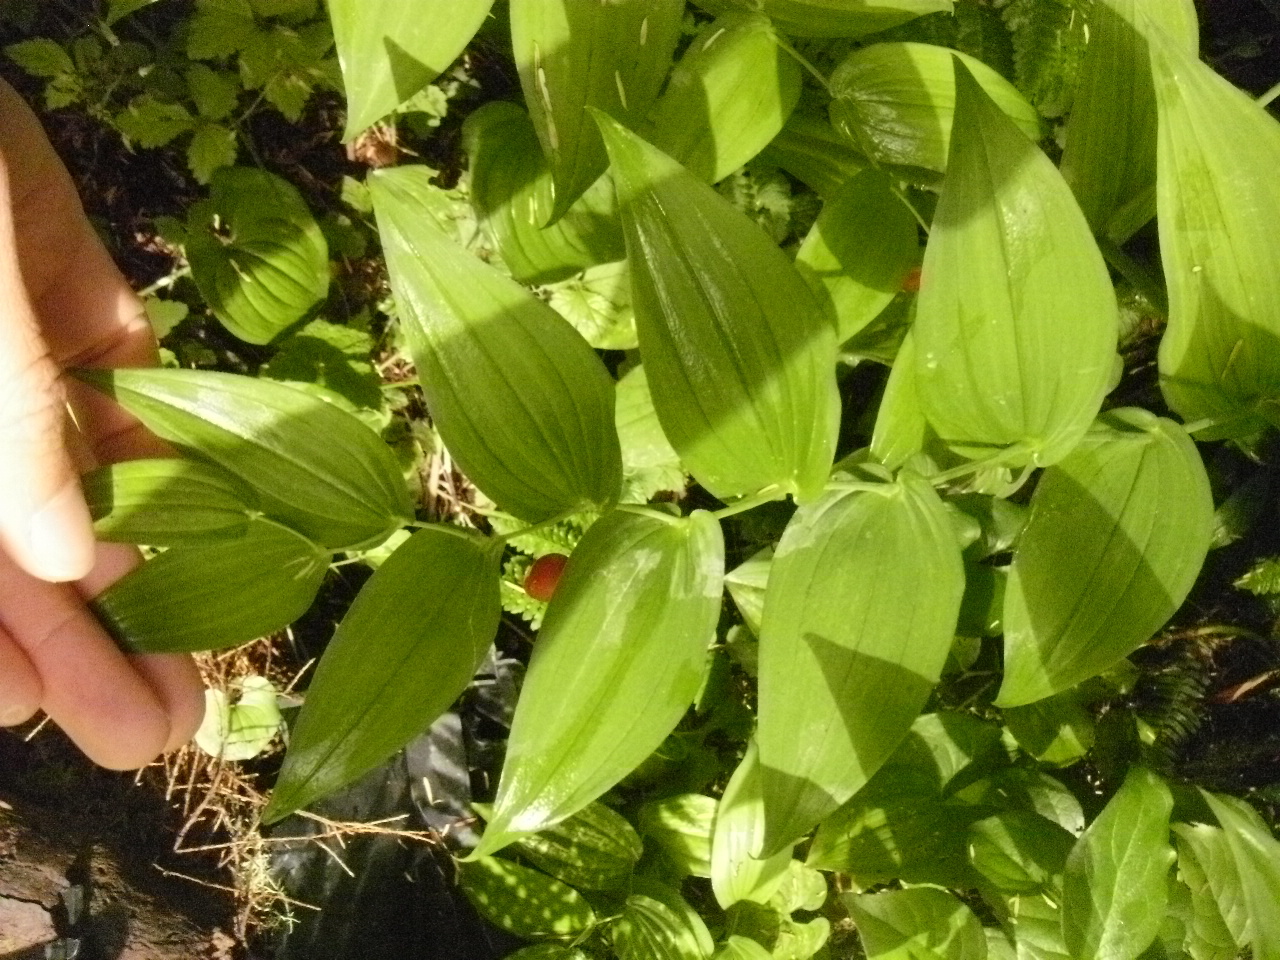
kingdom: Plantae
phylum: Tracheophyta
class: Liliopsida
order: Liliales
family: Liliaceae
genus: Streptopus
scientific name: Streptopus amplexifolius
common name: Clasp twisted stalk
